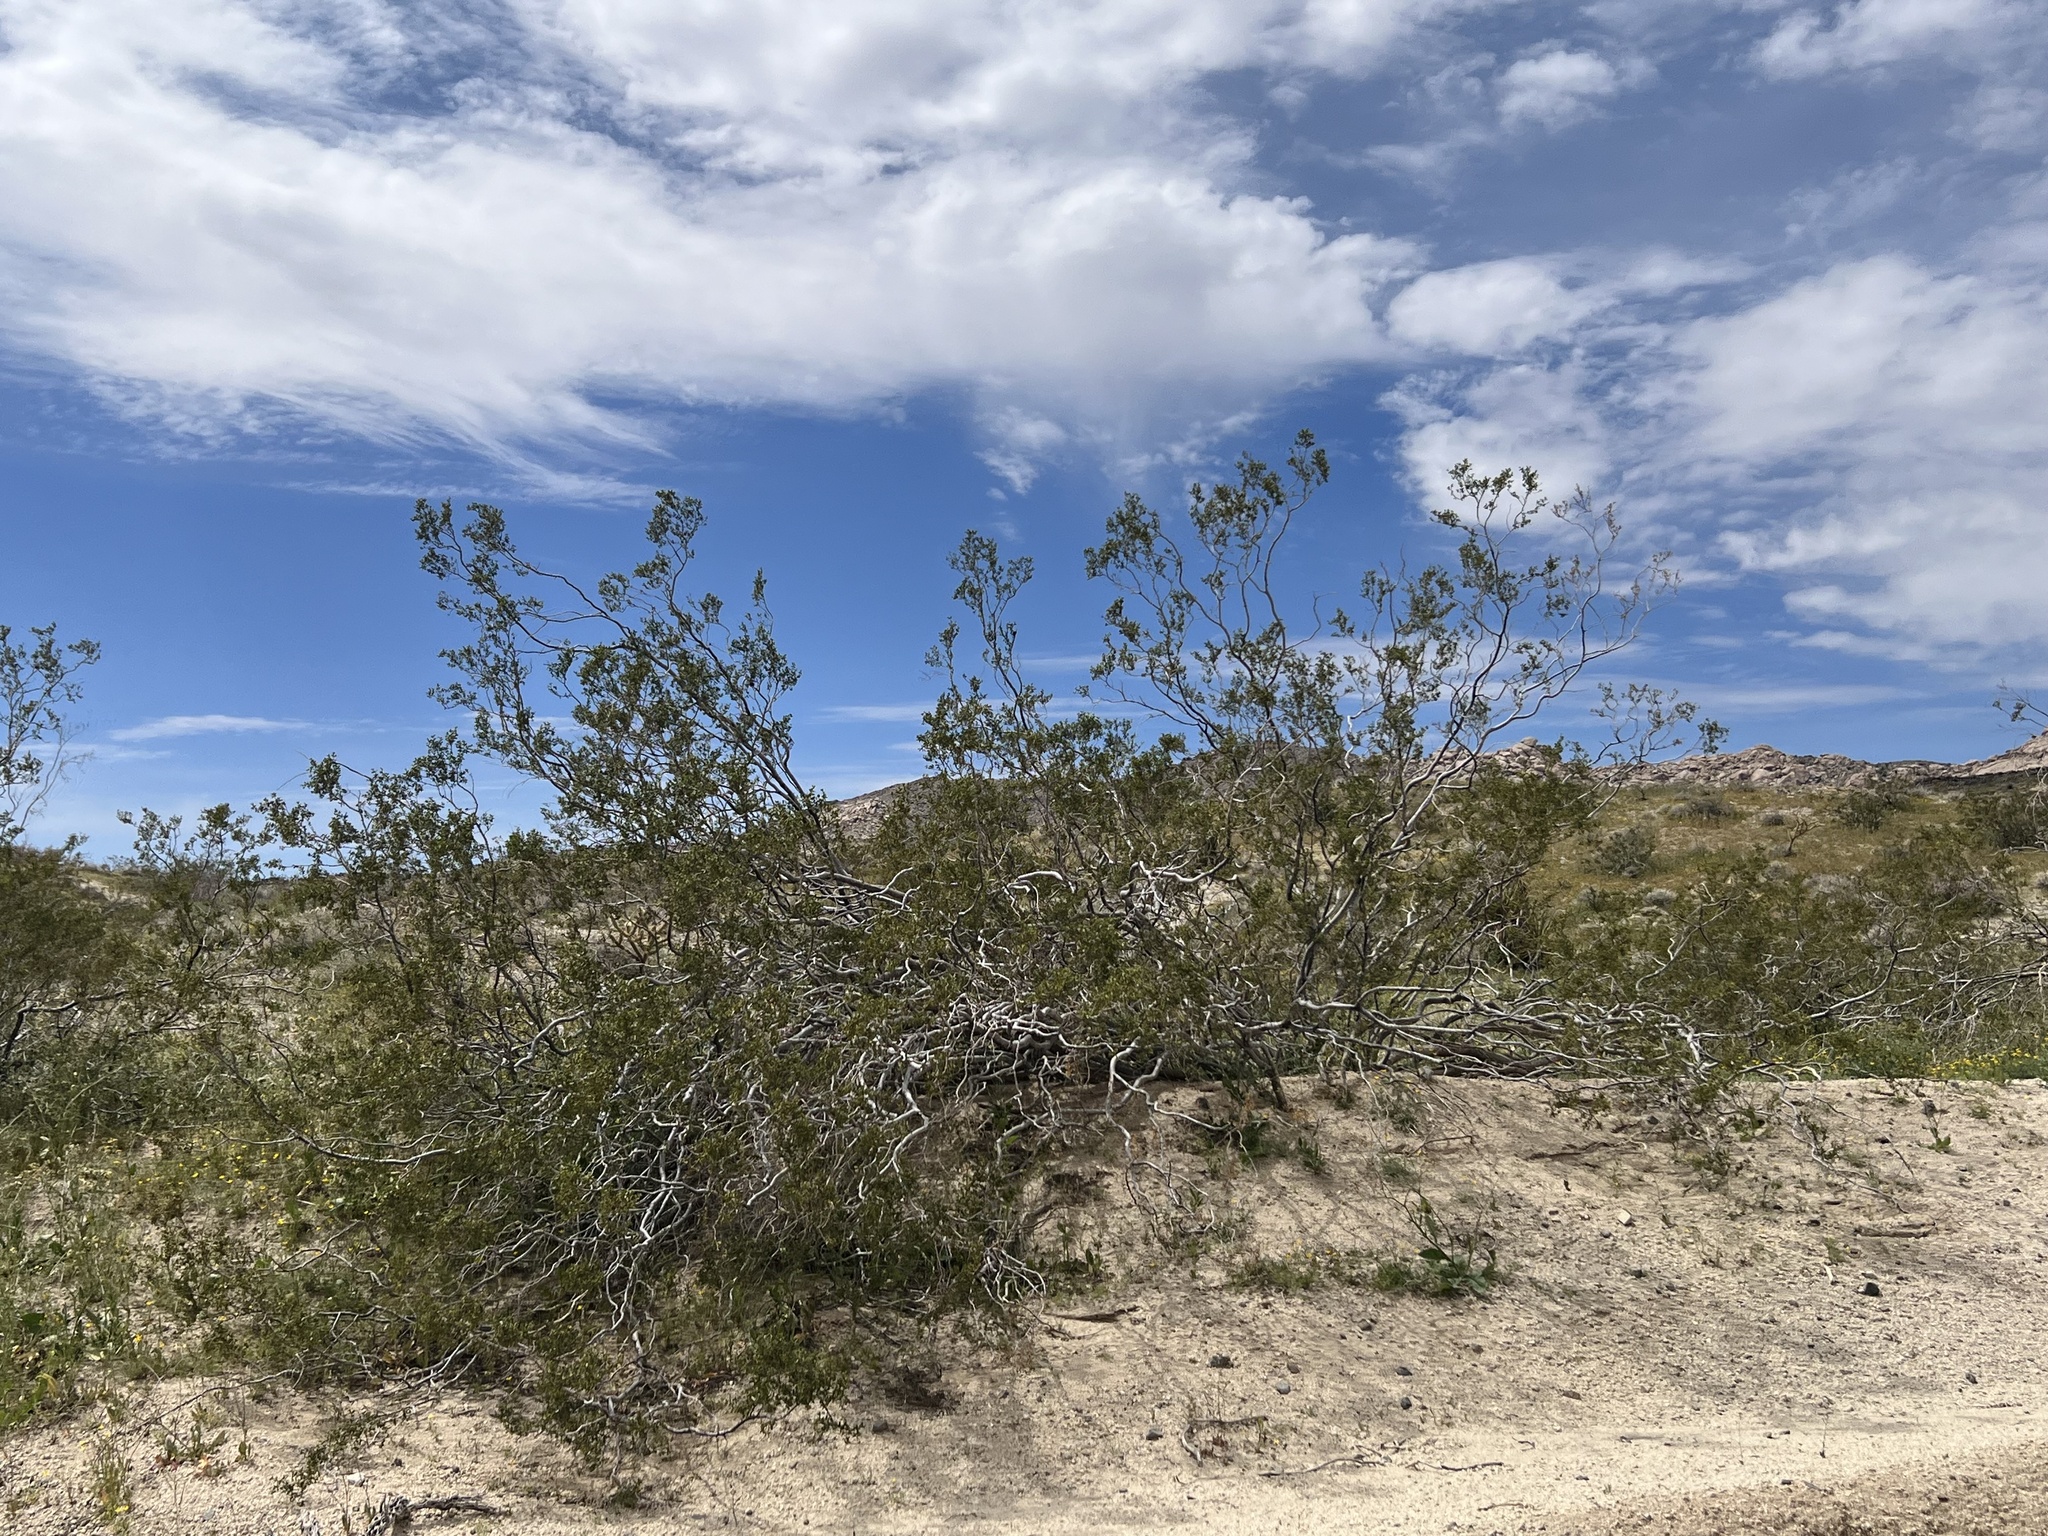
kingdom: Plantae
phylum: Tracheophyta
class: Magnoliopsida
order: Zygophyllales
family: Zygophyllaceae
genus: Larrea
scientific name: Larrea tridentata
